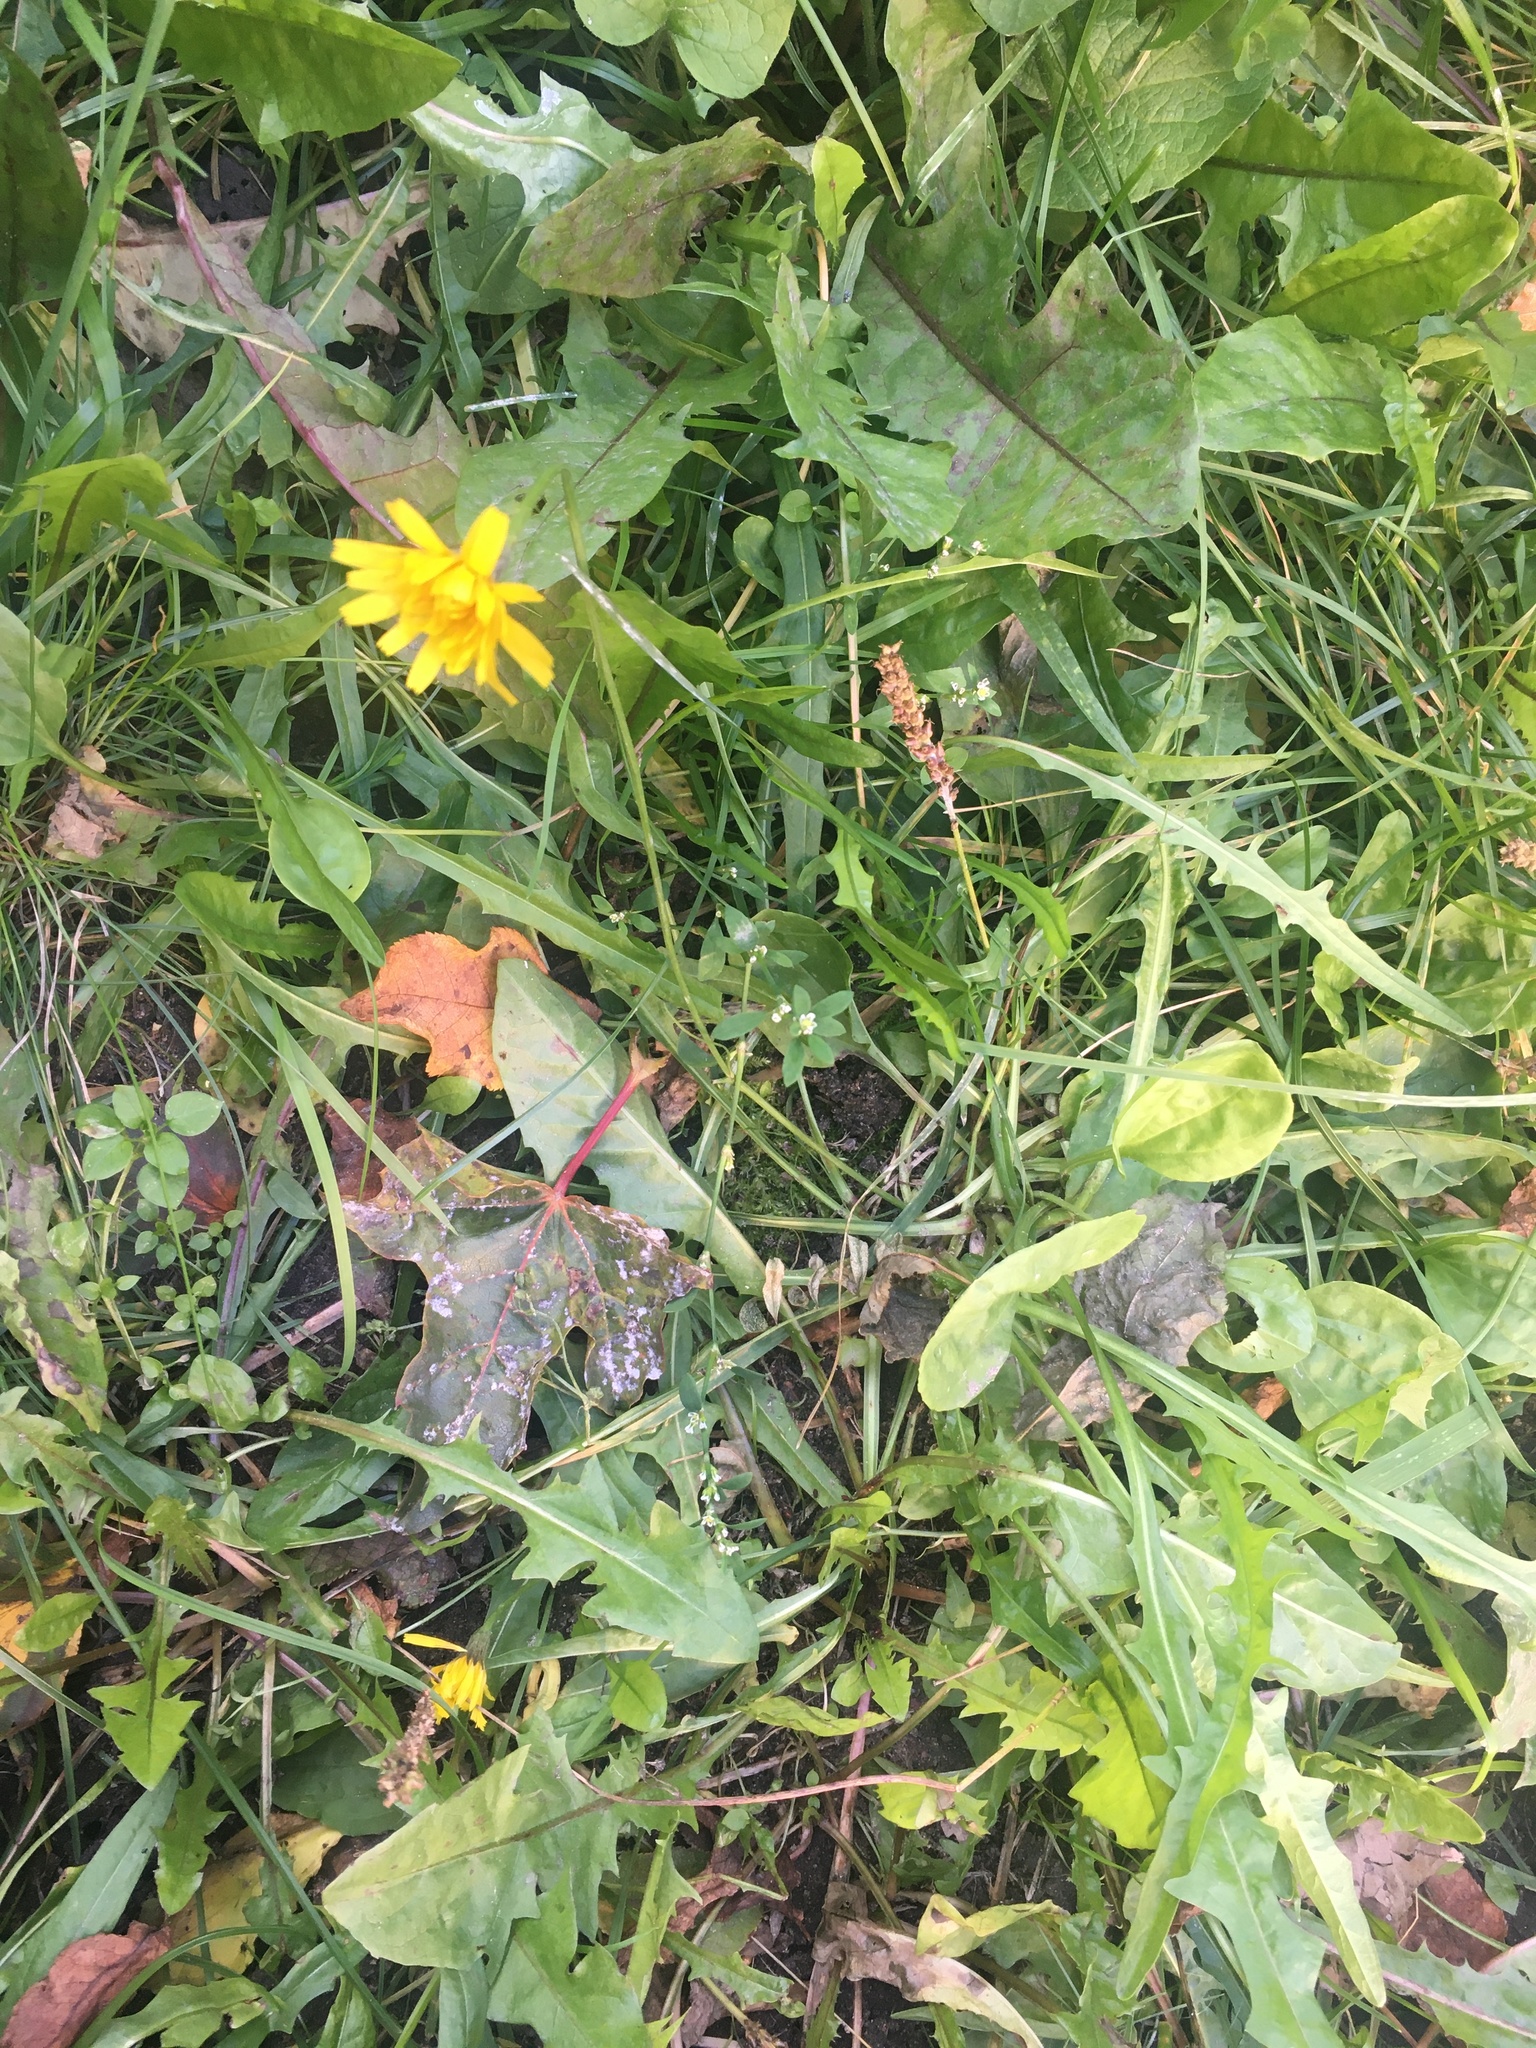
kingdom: Plantae
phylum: Tracheophyta
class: Magnoliopsida
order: Asterales
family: Asteraceae
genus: Scorzoneroides
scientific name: Scorzoneroides autumnalis
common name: Autumn hawkbit
